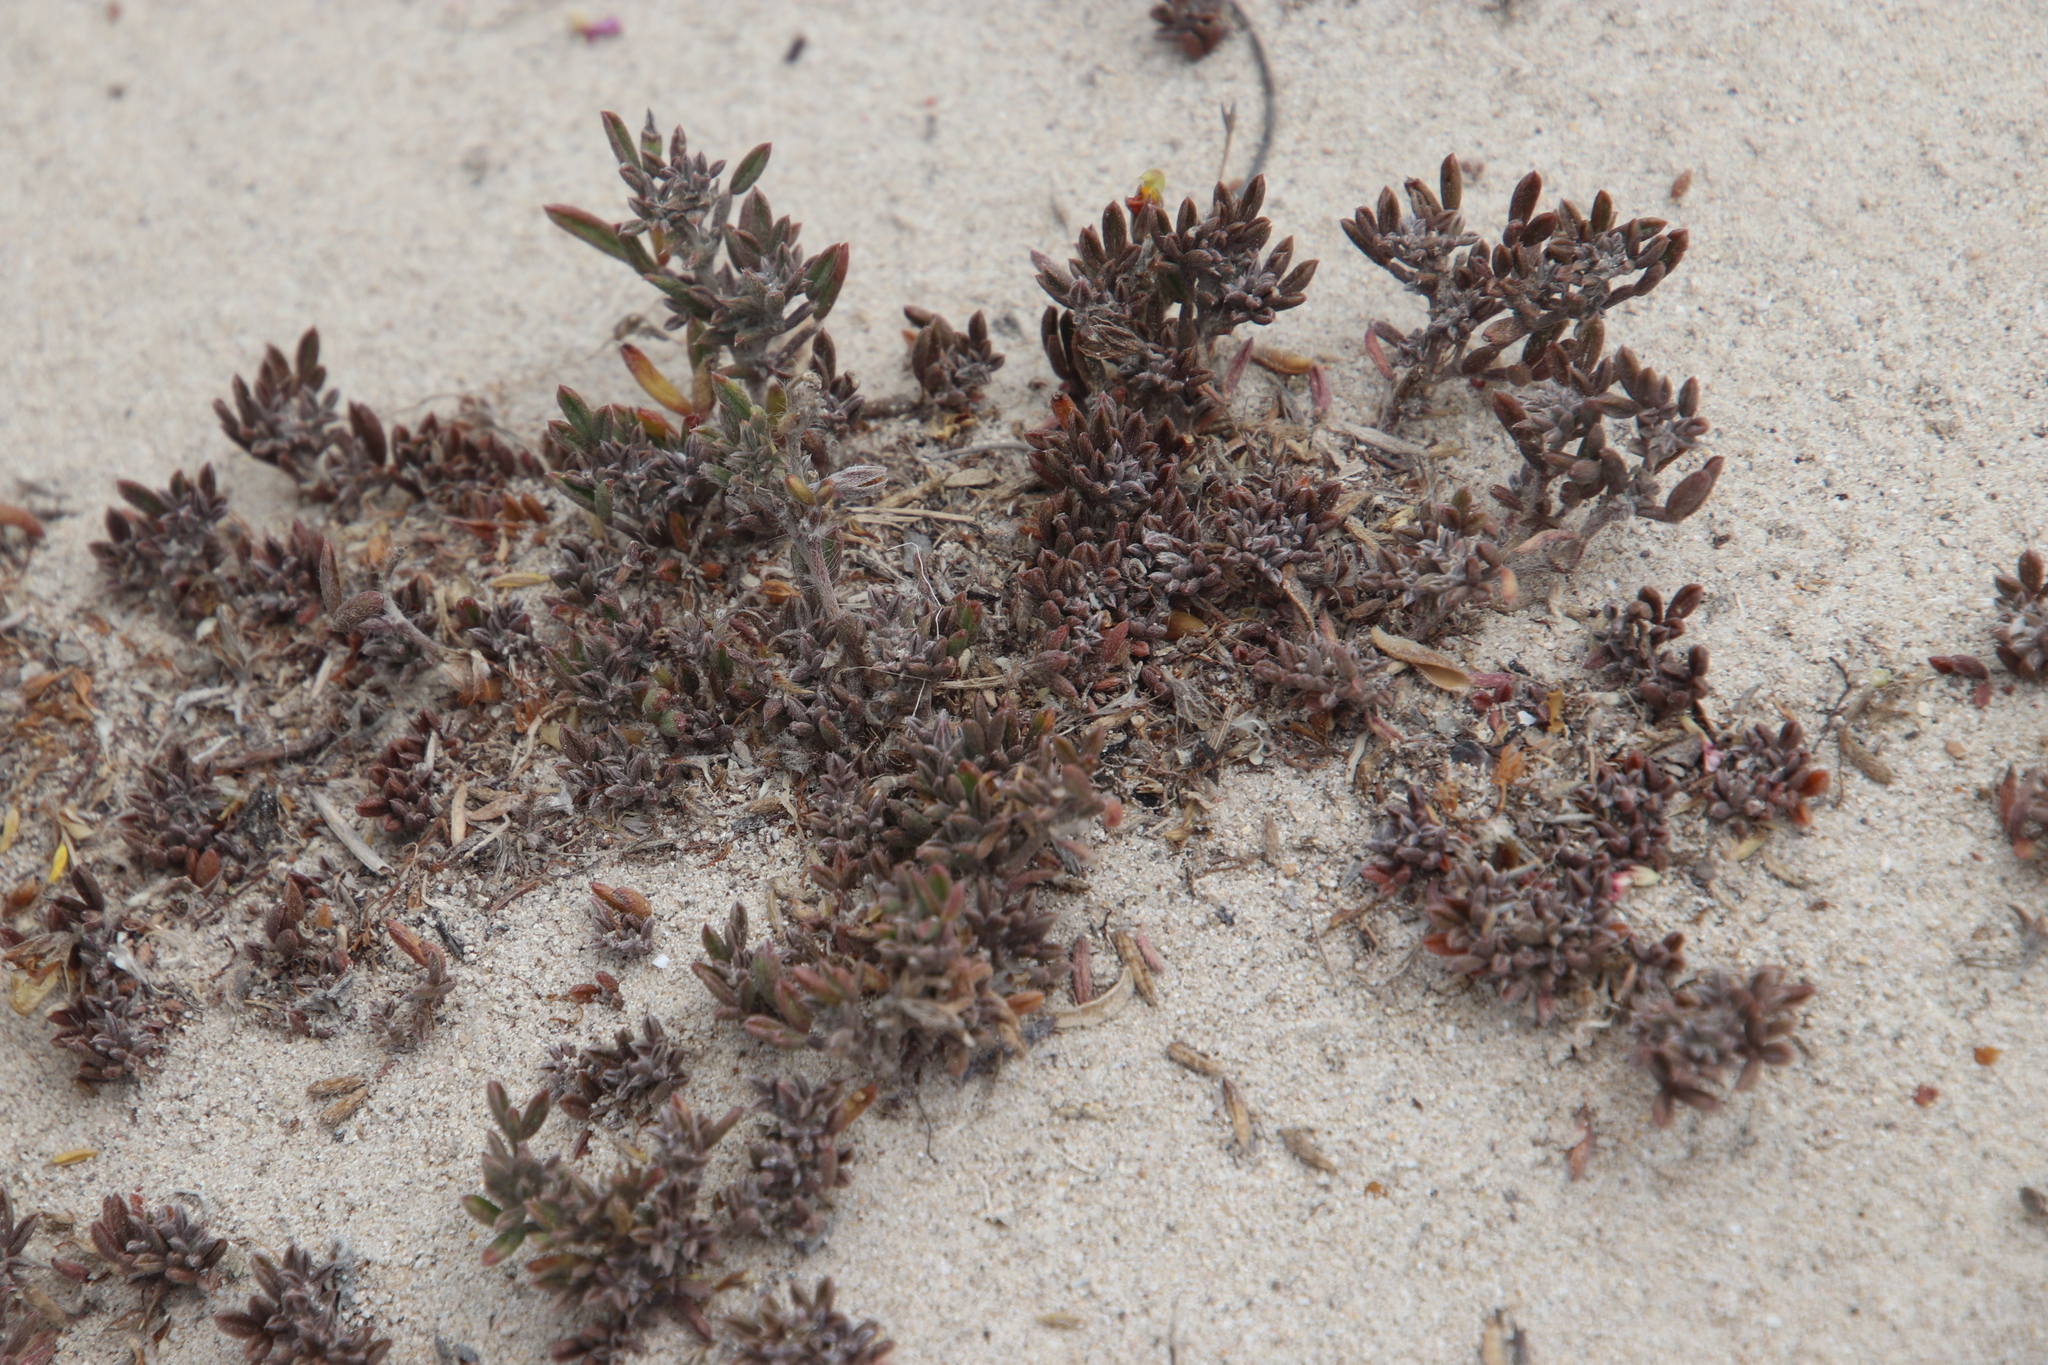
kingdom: Plantae
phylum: Tracheophyta
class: Magnoliopsida
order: Fabales
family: Fabaceae
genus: Lotononis
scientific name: Lotononis pungens
